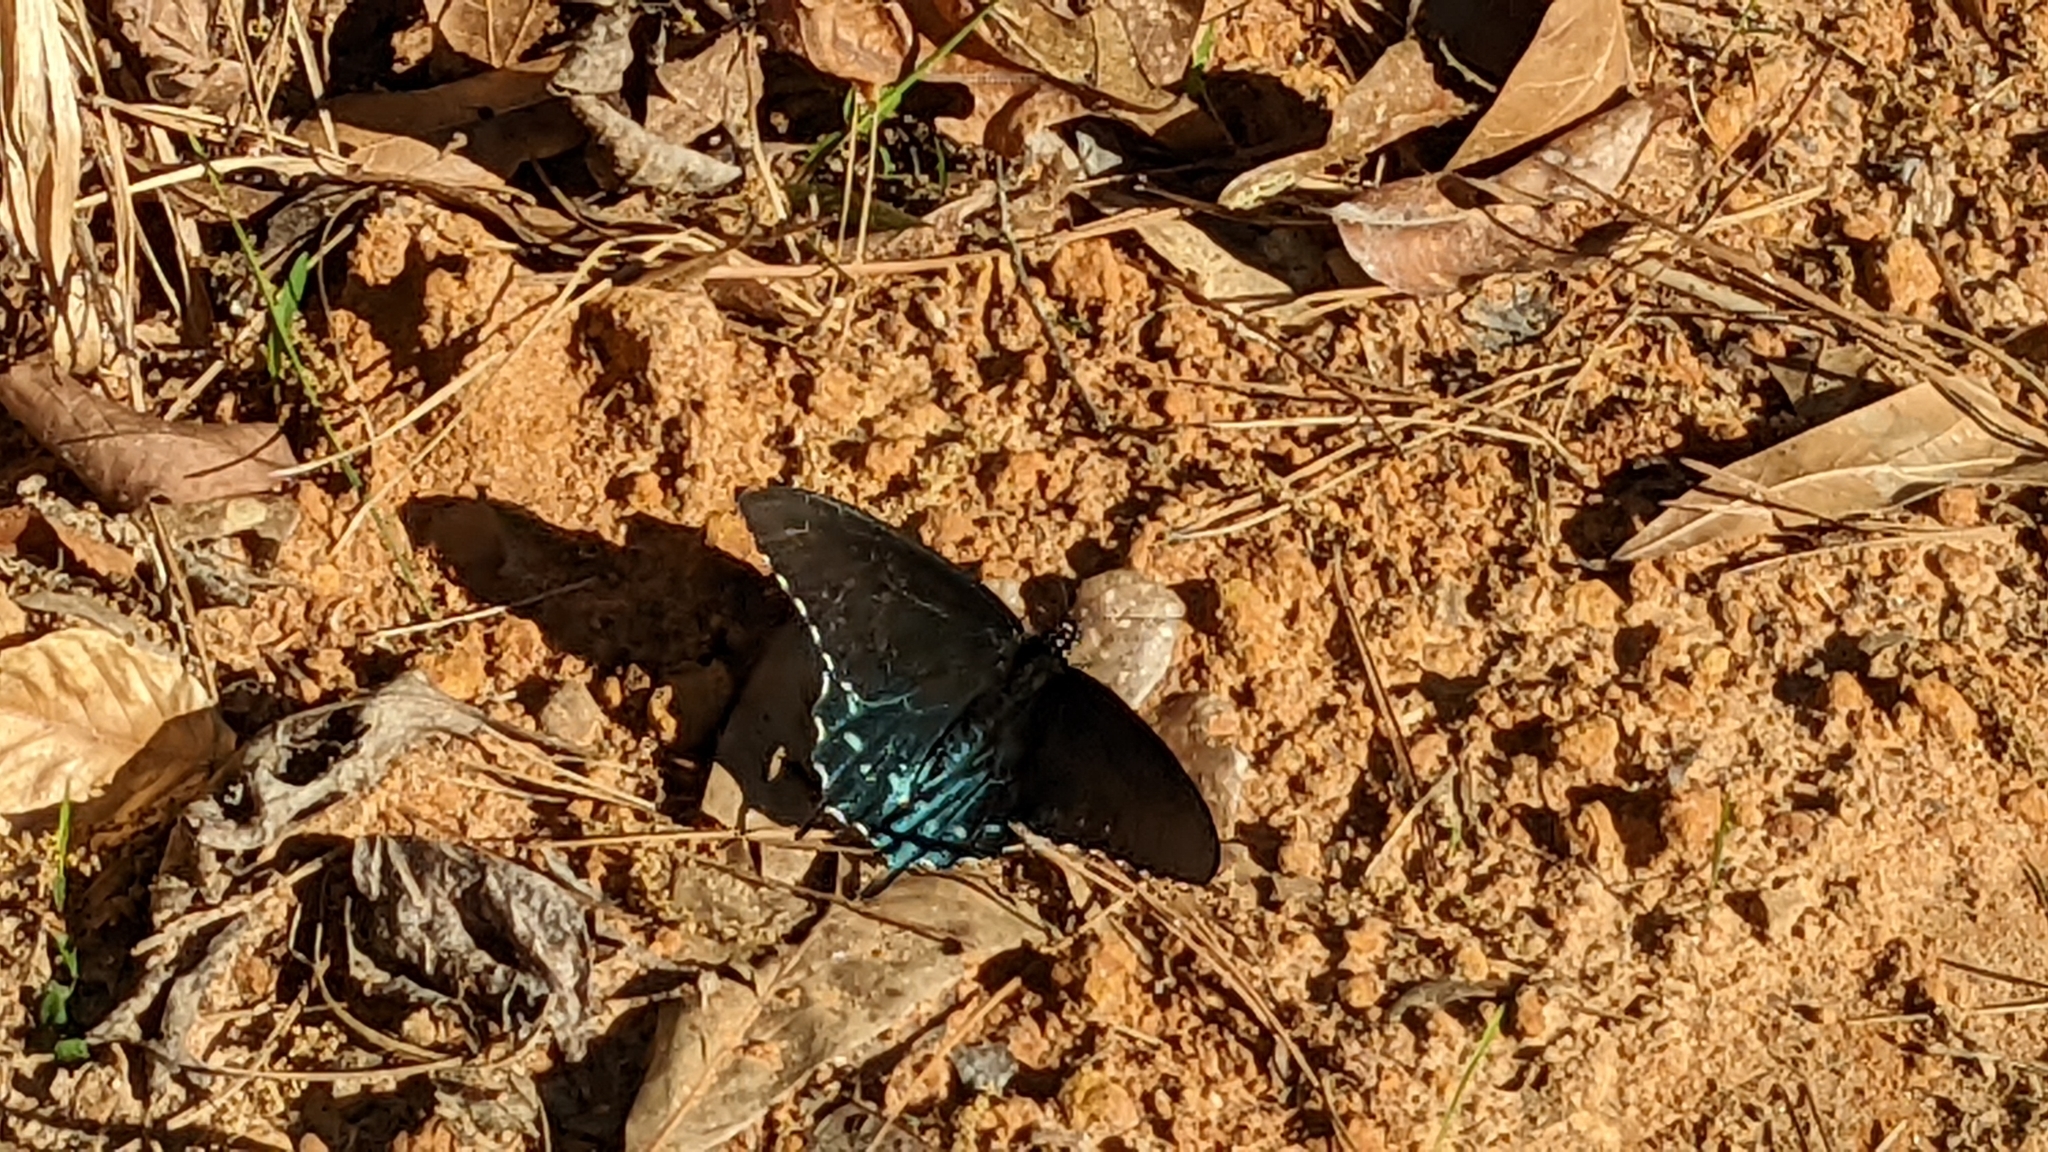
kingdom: Animalia
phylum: Arthropoda
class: Insecta
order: Lepidoptera
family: Papilionidae
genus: Battus
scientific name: Battus philenor
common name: Pipevine swallowtail
